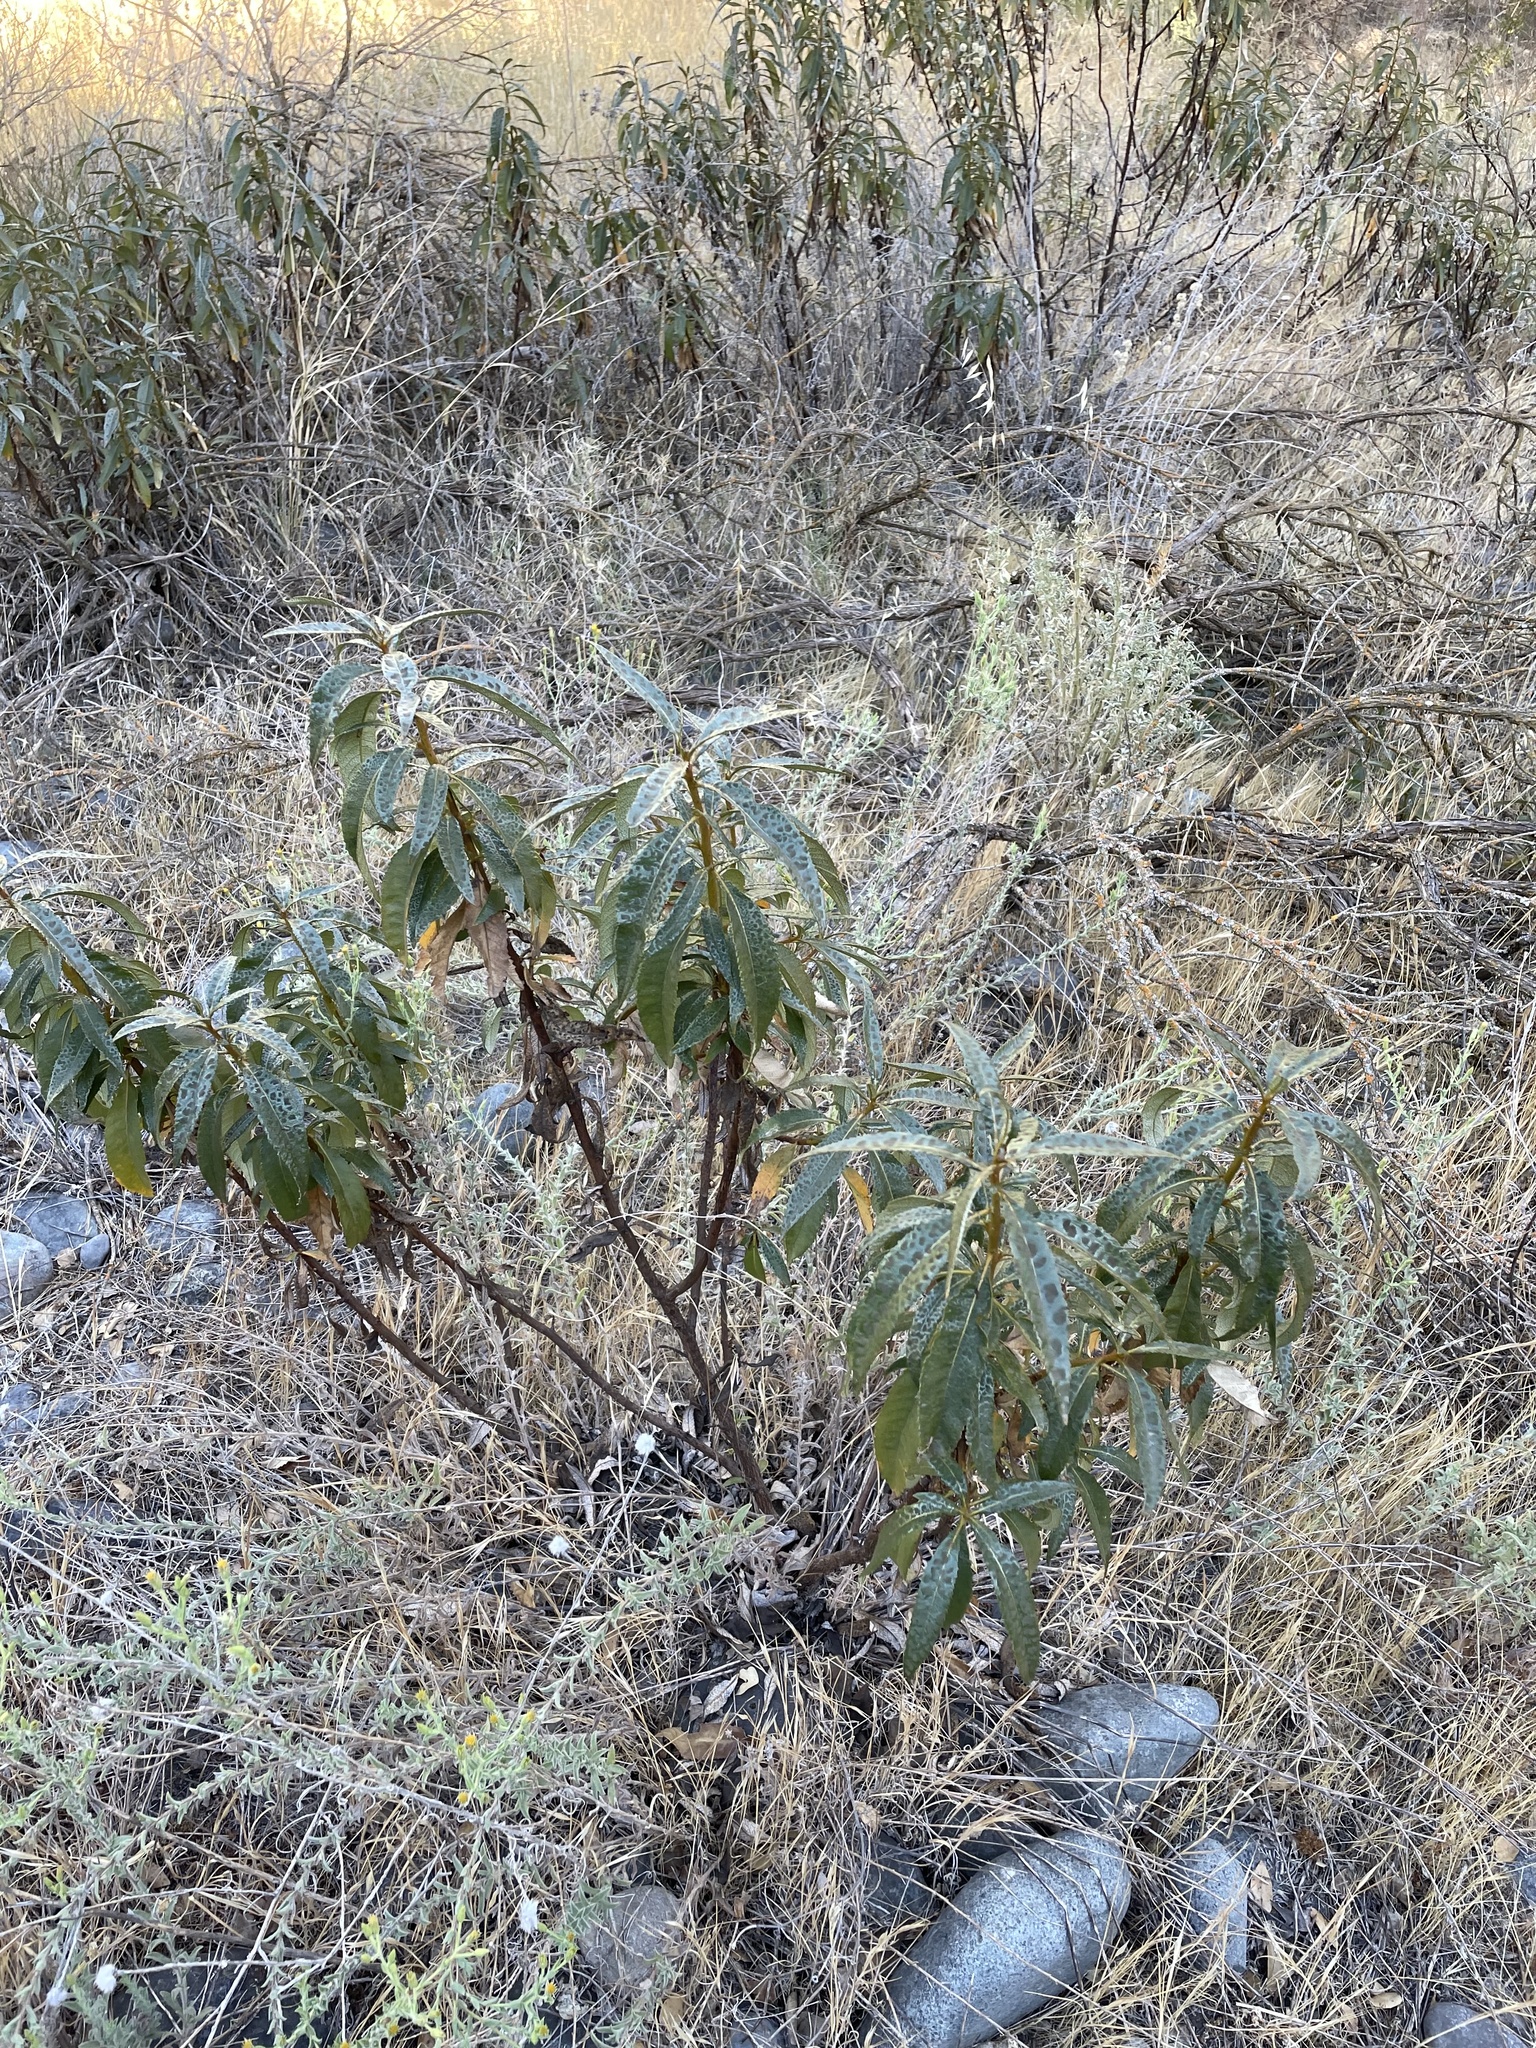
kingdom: Plantae
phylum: Tracheophyta
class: Magnoliopsida
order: Boraginales
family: Namaceae
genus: Eriodictyon
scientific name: Eriodictyon californicum
